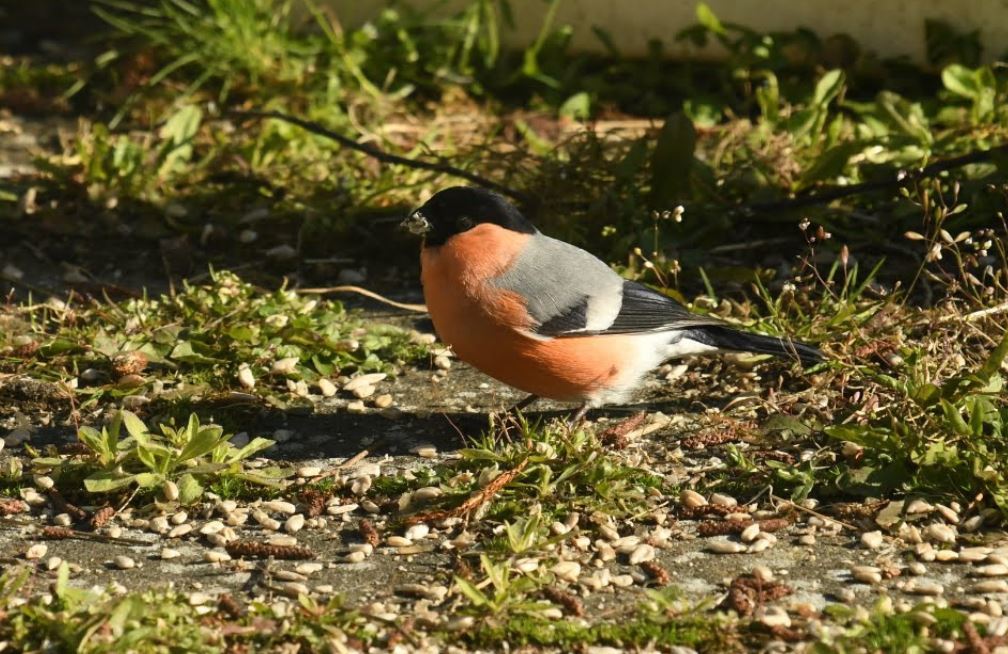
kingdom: Animalia
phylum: Chordata
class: Aves
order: Passeriformes
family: Fringillidae
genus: Pyrrhula
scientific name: Pyrrhula pyrrhula
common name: Eurasian bullfinch
